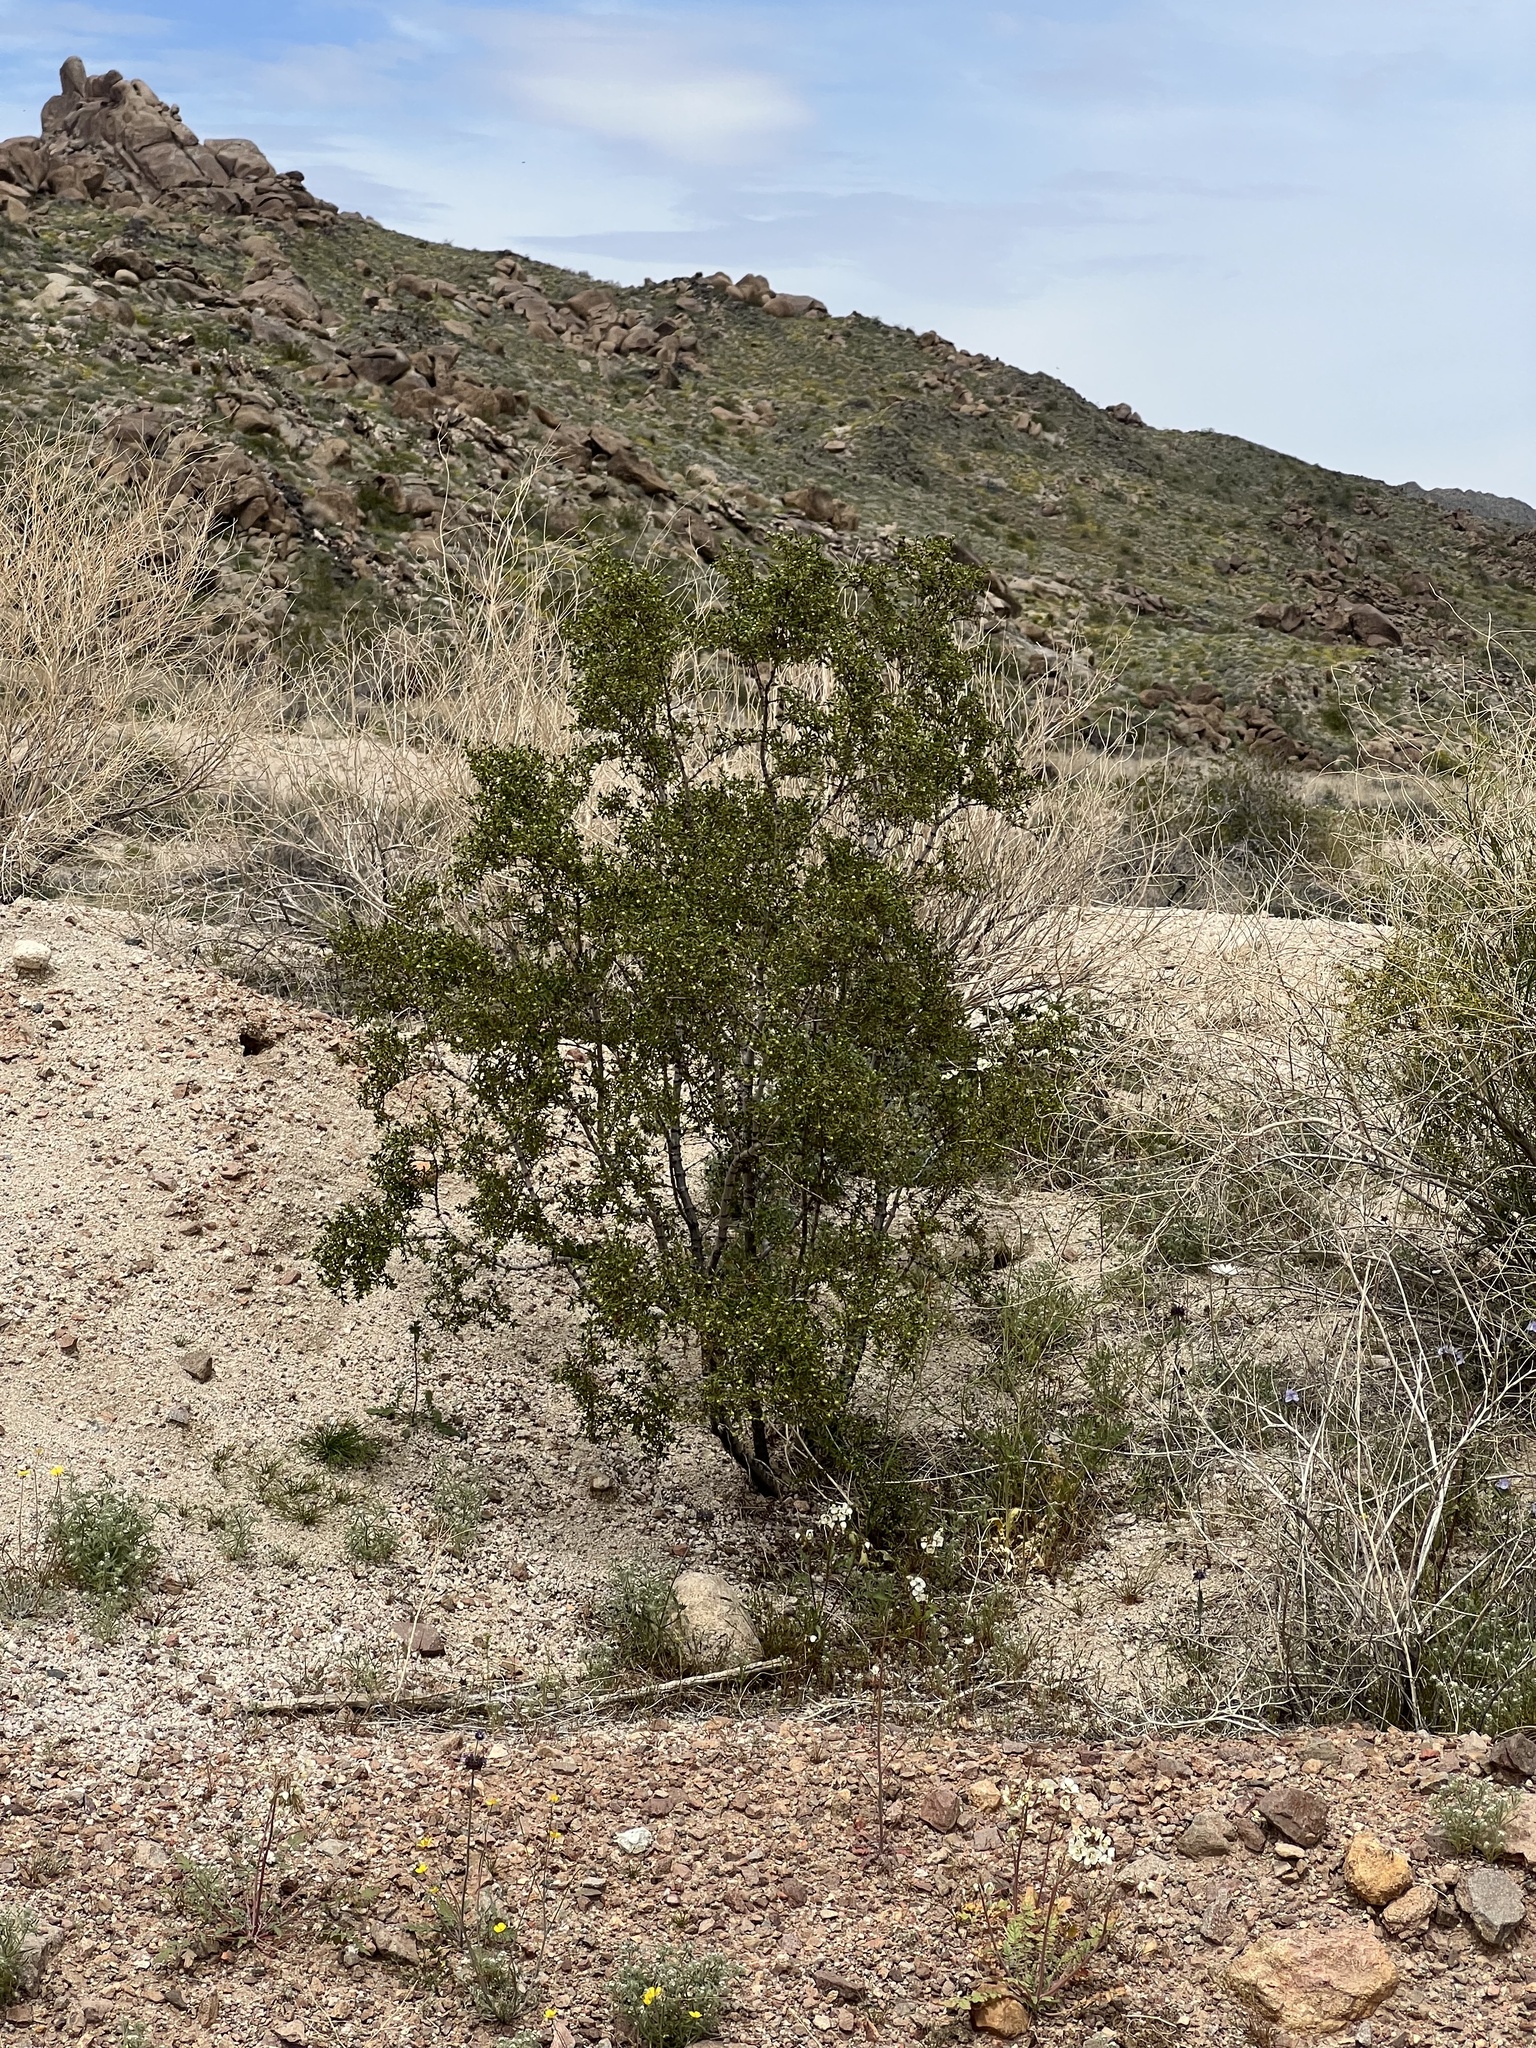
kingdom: Plantae
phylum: Tracheophyta
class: Magnoliopsida
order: Zygophyllales
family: Zygophyllaceae
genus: Larrea
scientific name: Larrea tridentata
